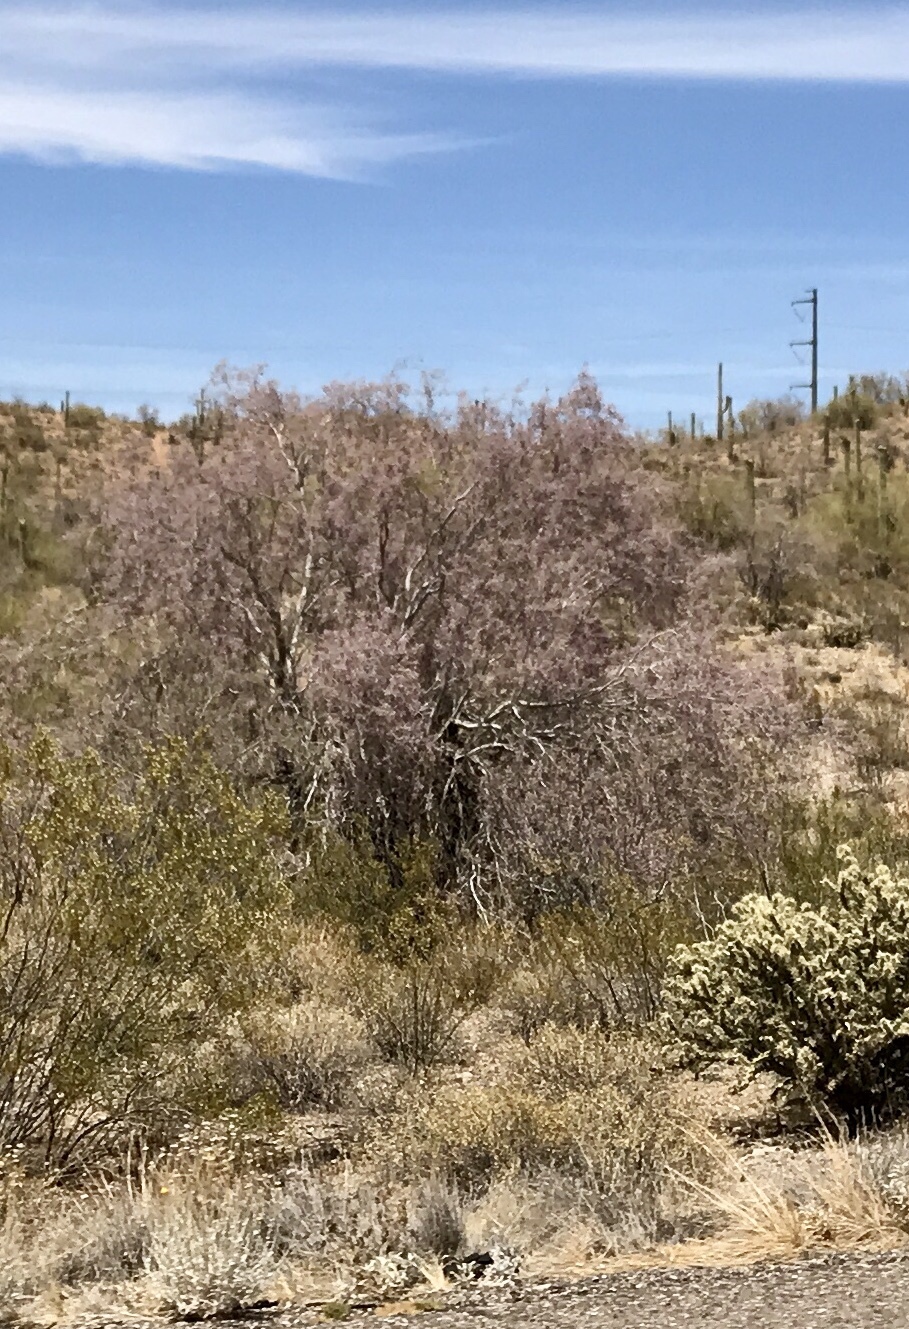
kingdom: Plantae
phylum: Tracheophyta
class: Magnoliopsida
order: Fabales
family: Fabaceae
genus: Olneya
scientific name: Olneya tesota
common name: Desert ironwood
